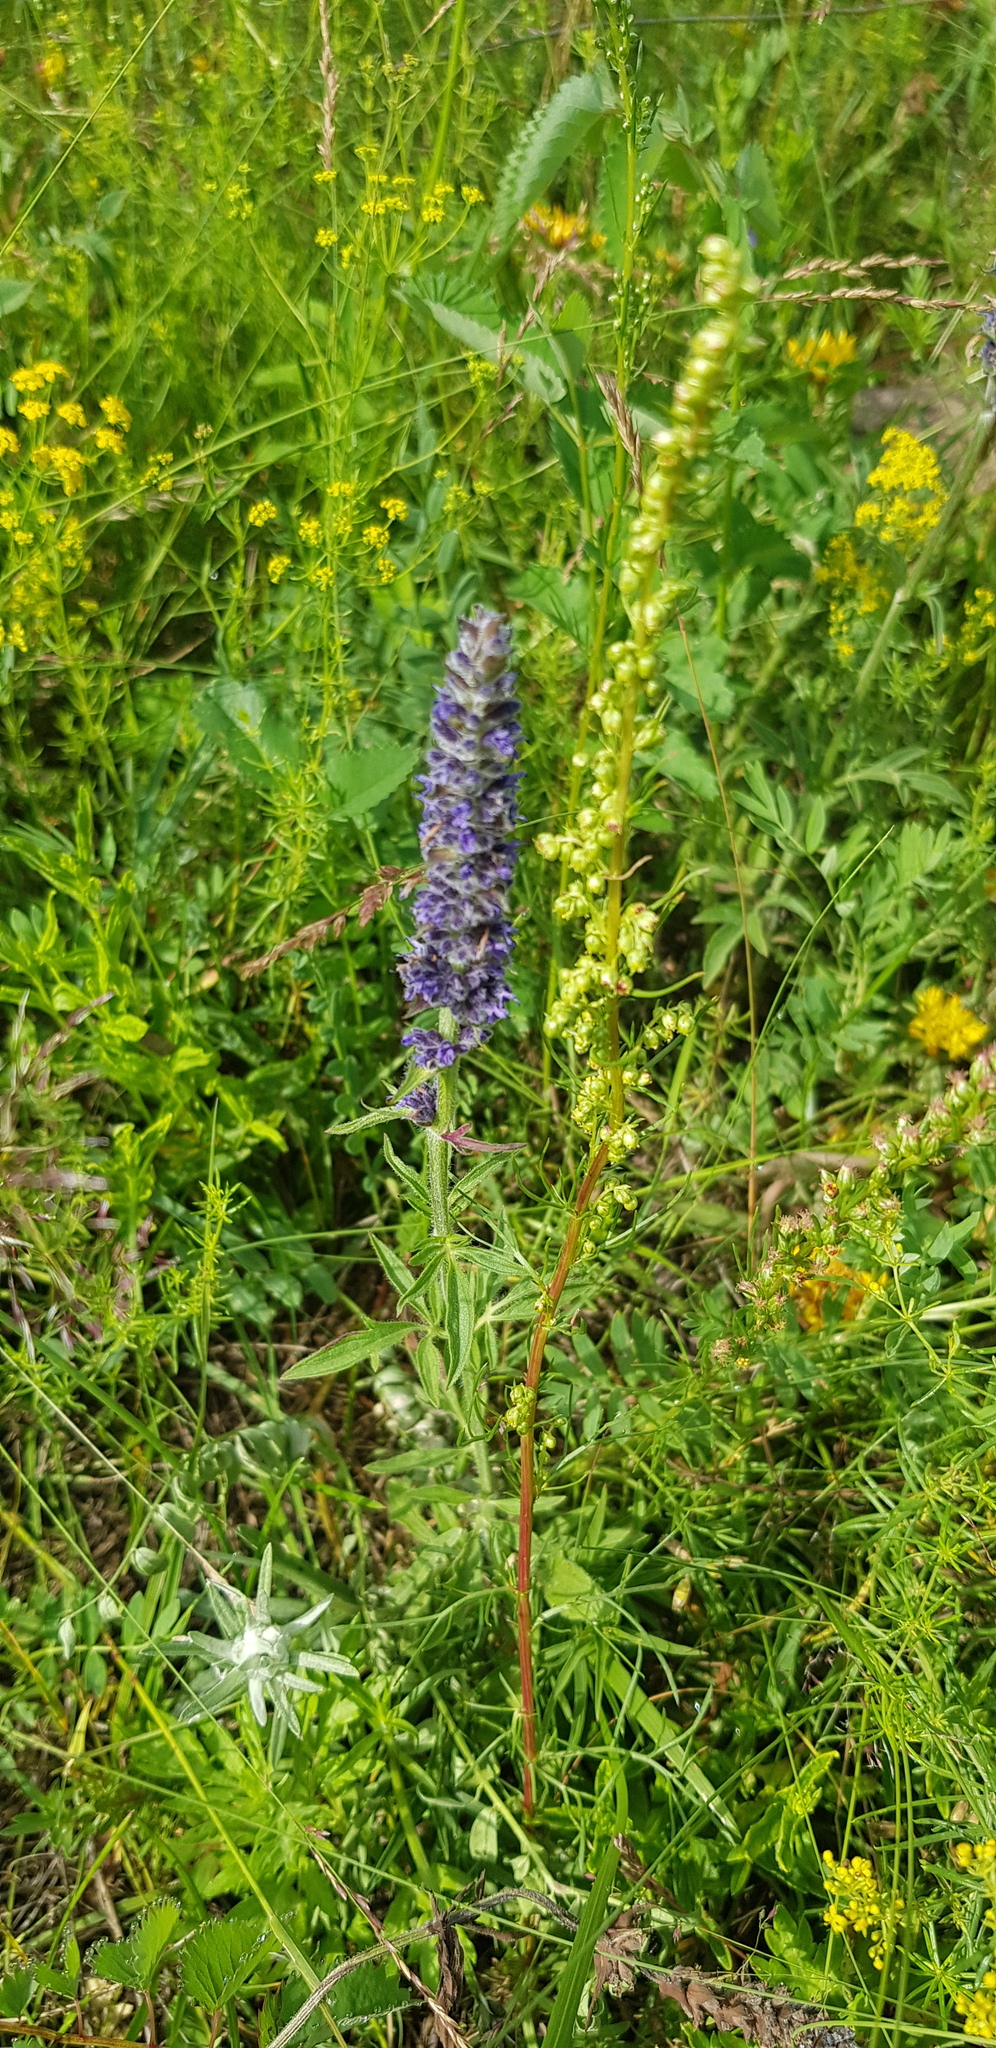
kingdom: Plantae
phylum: Tracheophyta
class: Magnoliopsida
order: Lamiales
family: Lamiaceae
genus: Nepeta
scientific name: Nepeta multifida
